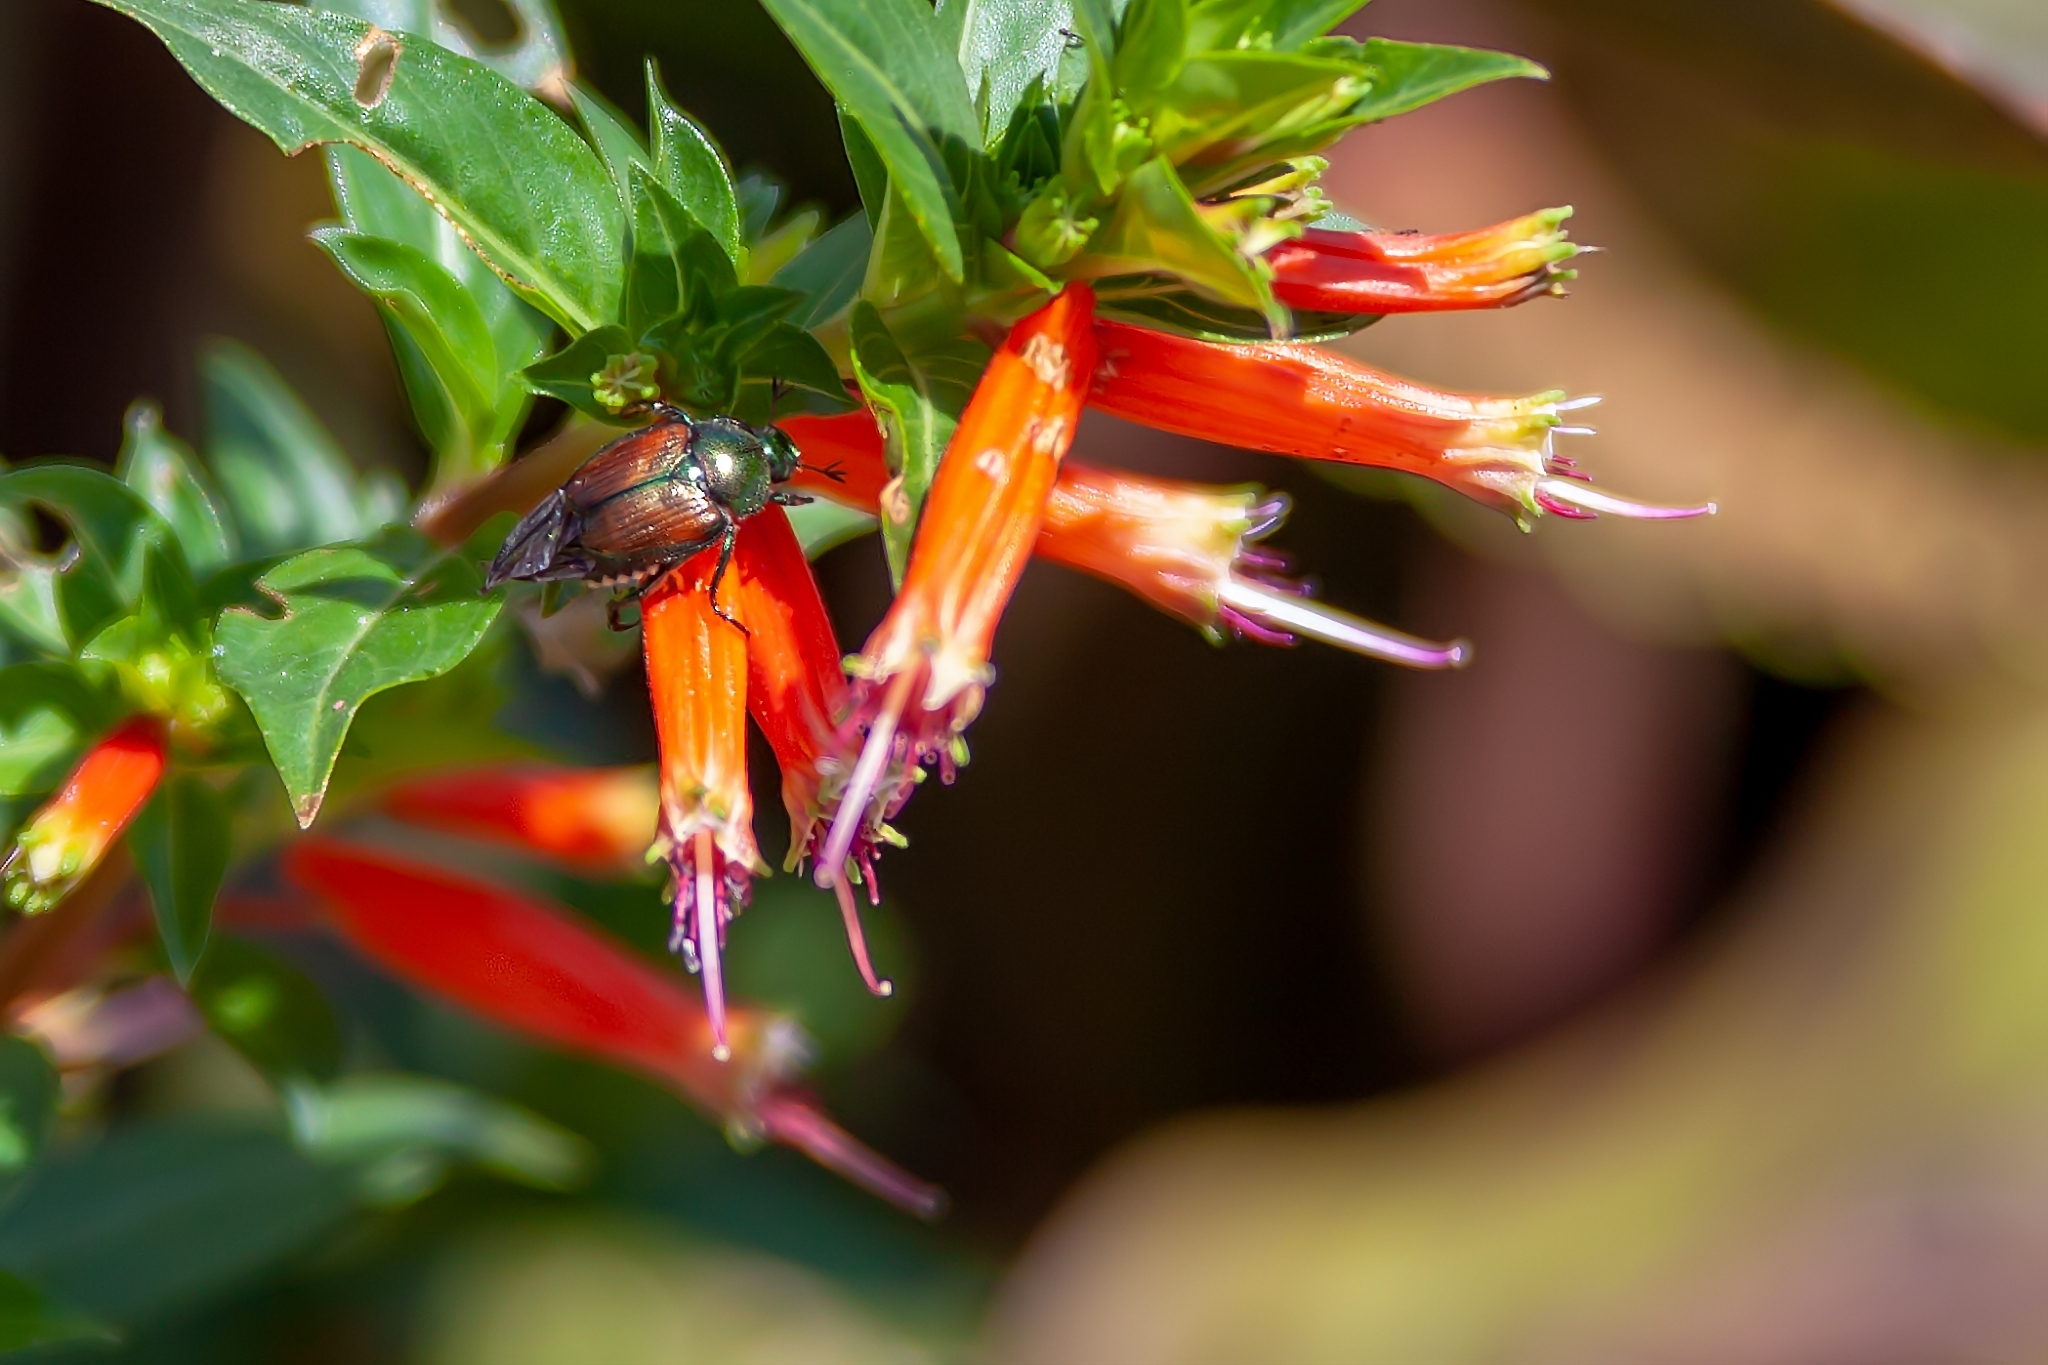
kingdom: Animalia
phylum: Arthropoda
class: Insecta
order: Coleoptera
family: Scarabaeidae
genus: Popillia
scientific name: Popillia japonica
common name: Japanese beetle
